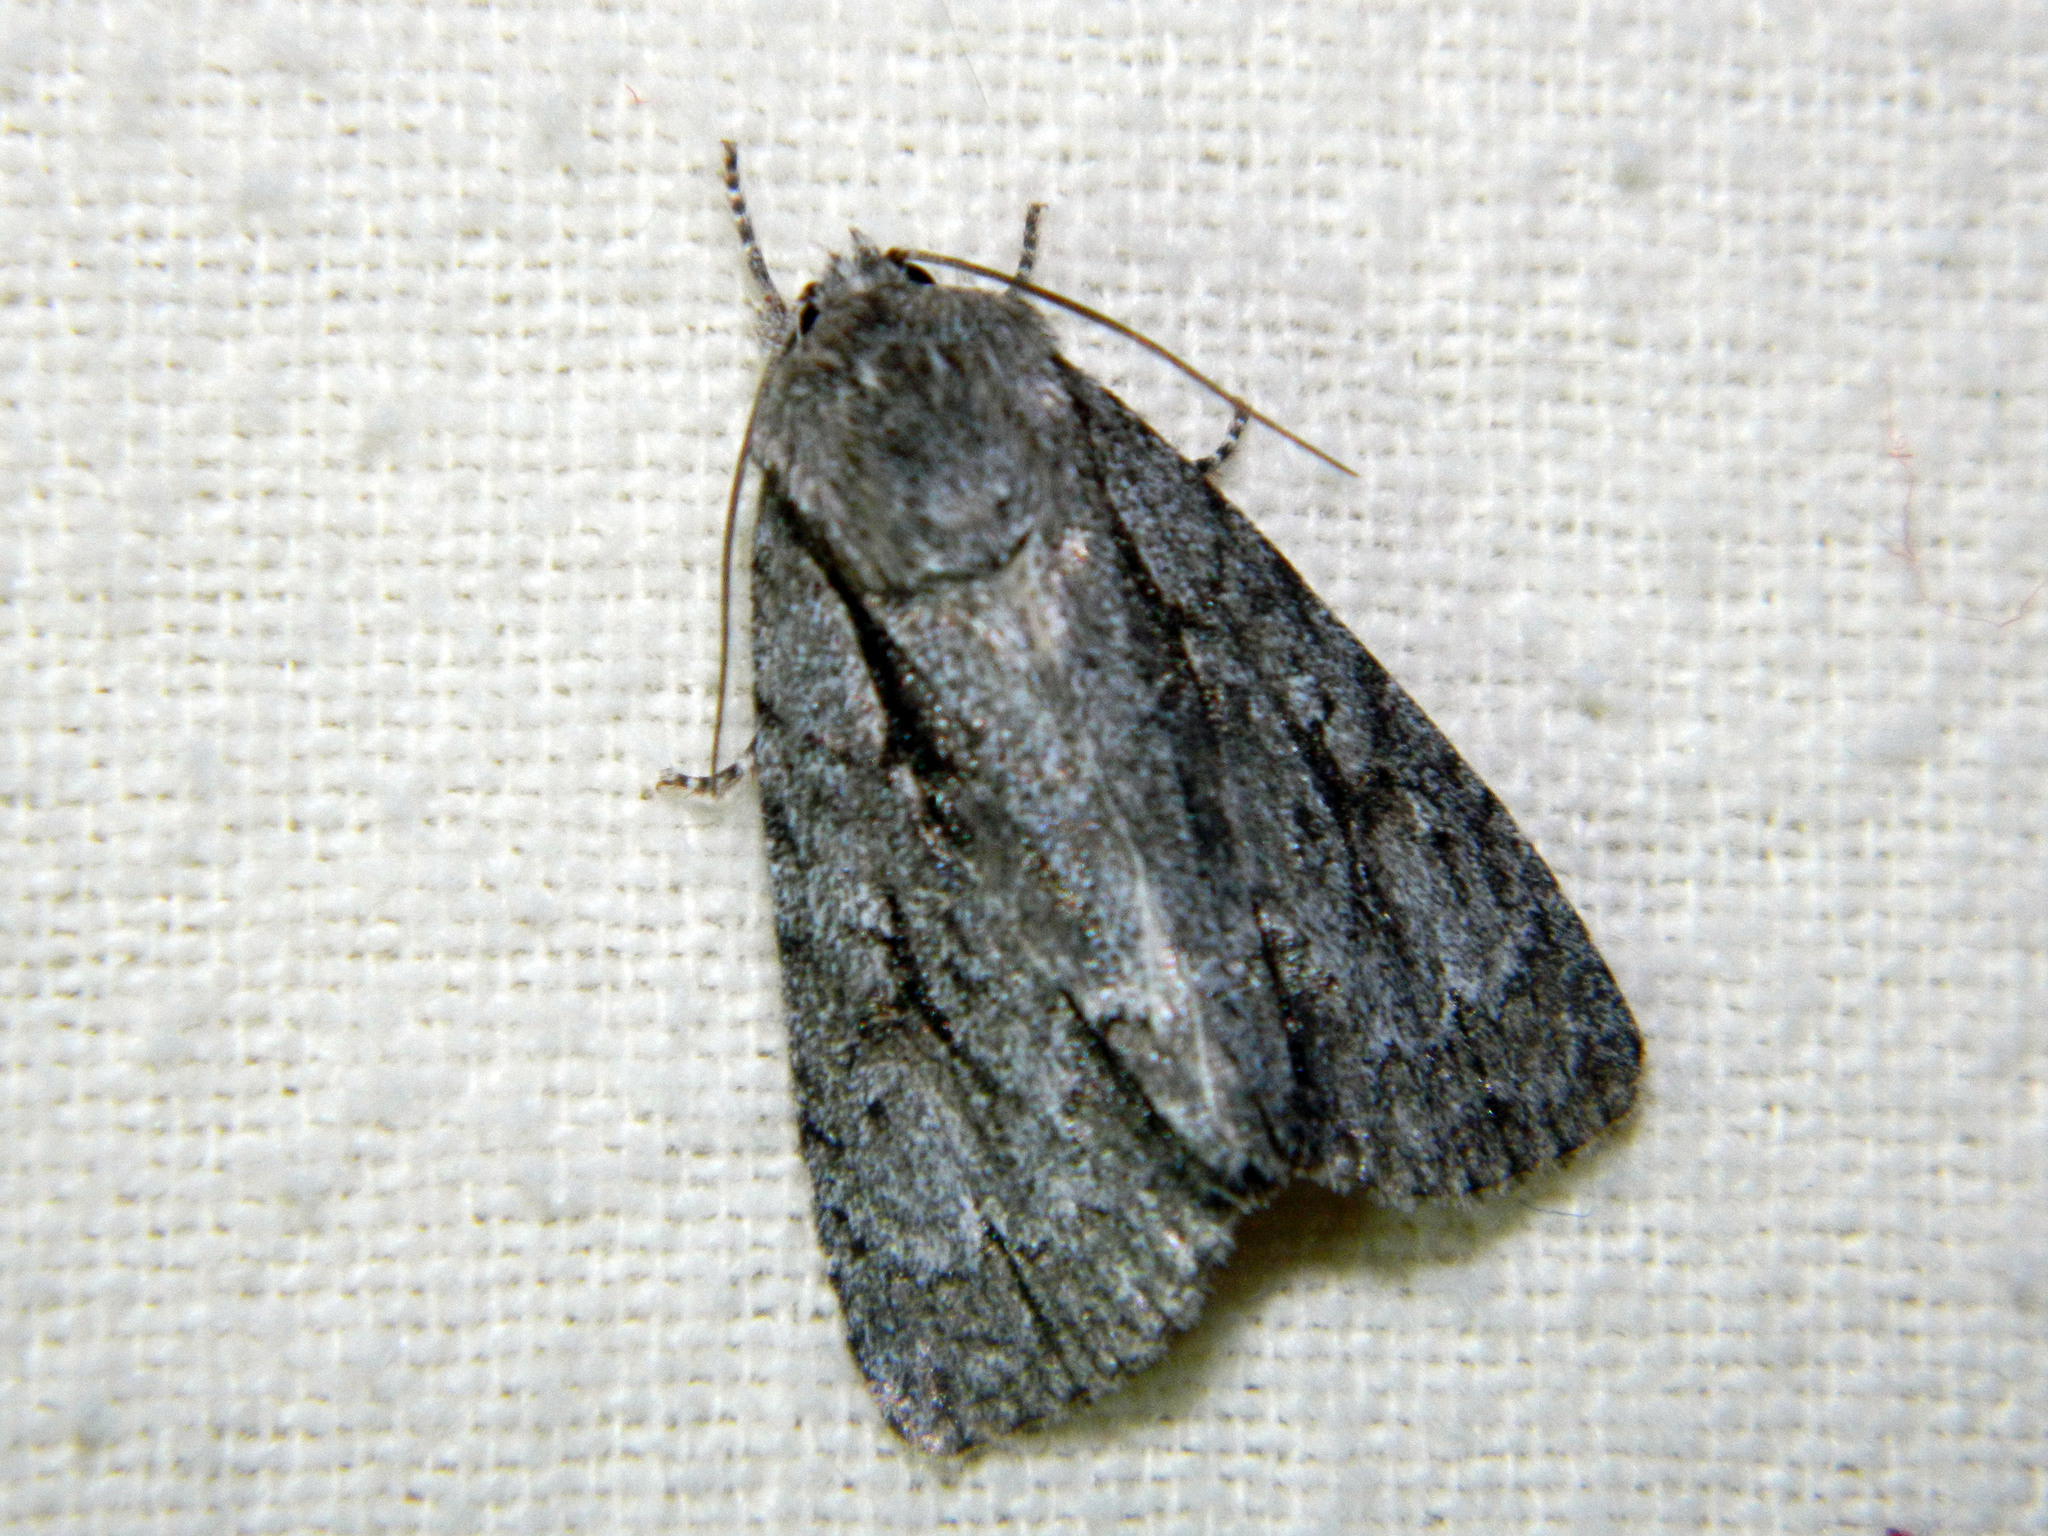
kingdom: Animalia
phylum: Arthropoda
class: Insecta
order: Lepidoptera
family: Noctuidae
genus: Acronicta
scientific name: Acronicta hasta
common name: Cherry dagger
